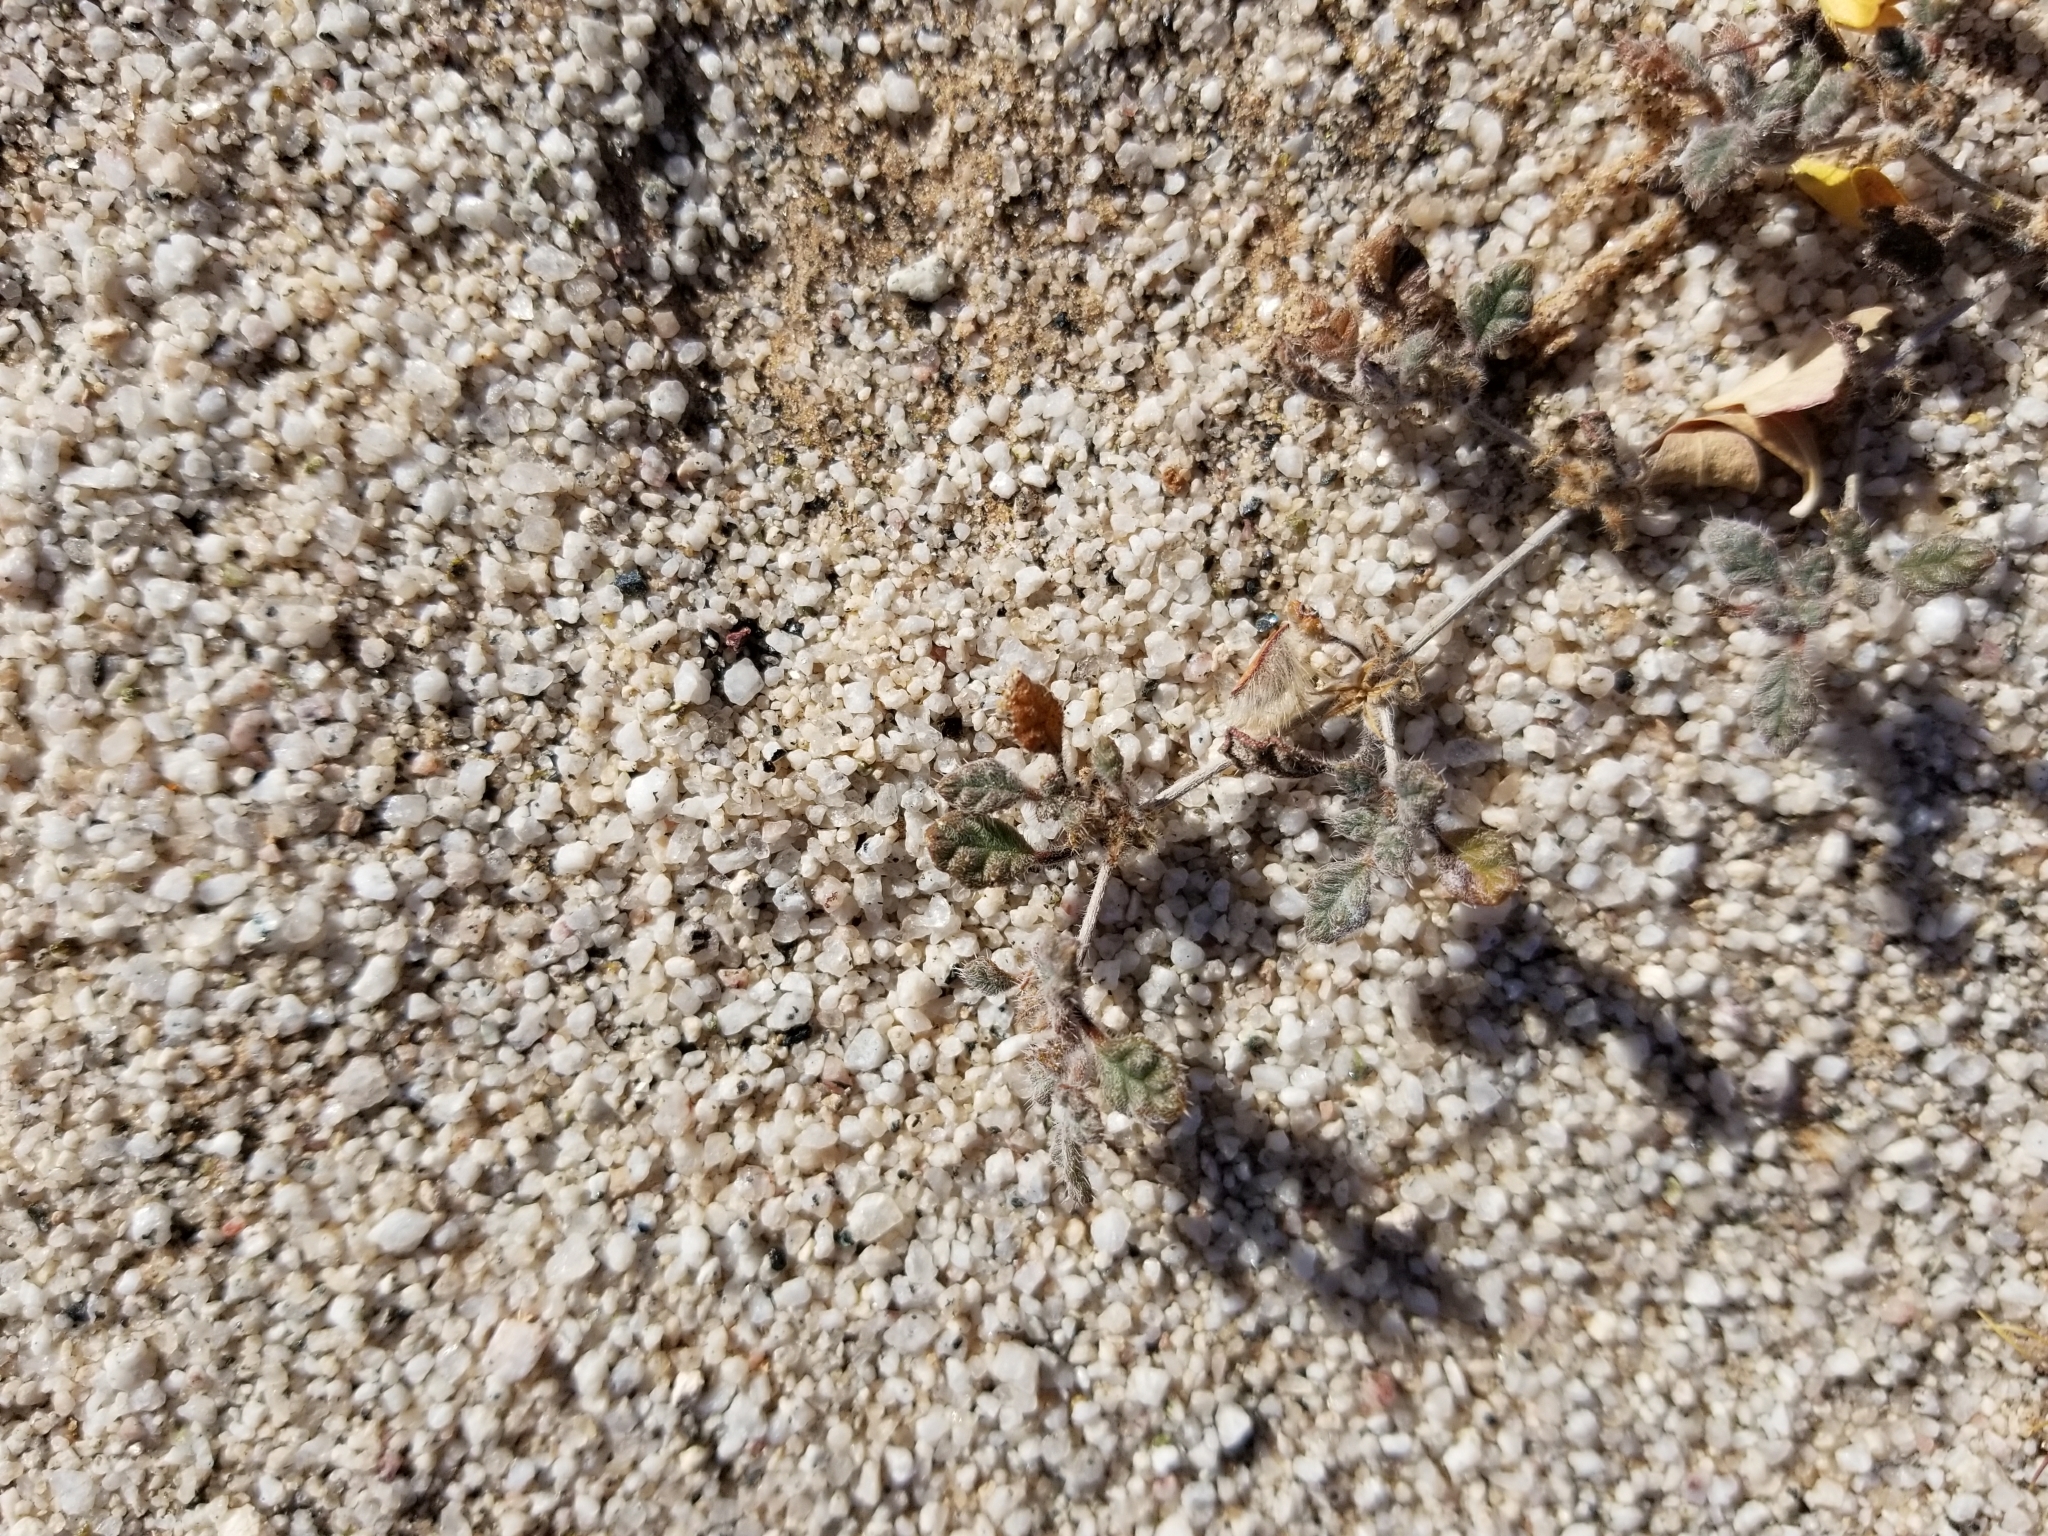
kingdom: Plantae
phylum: Tracheophyta
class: Magnoliopsida
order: Boraginales
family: Ehretiaceae
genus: Tiquilia
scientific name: Tiquilia palmeri
